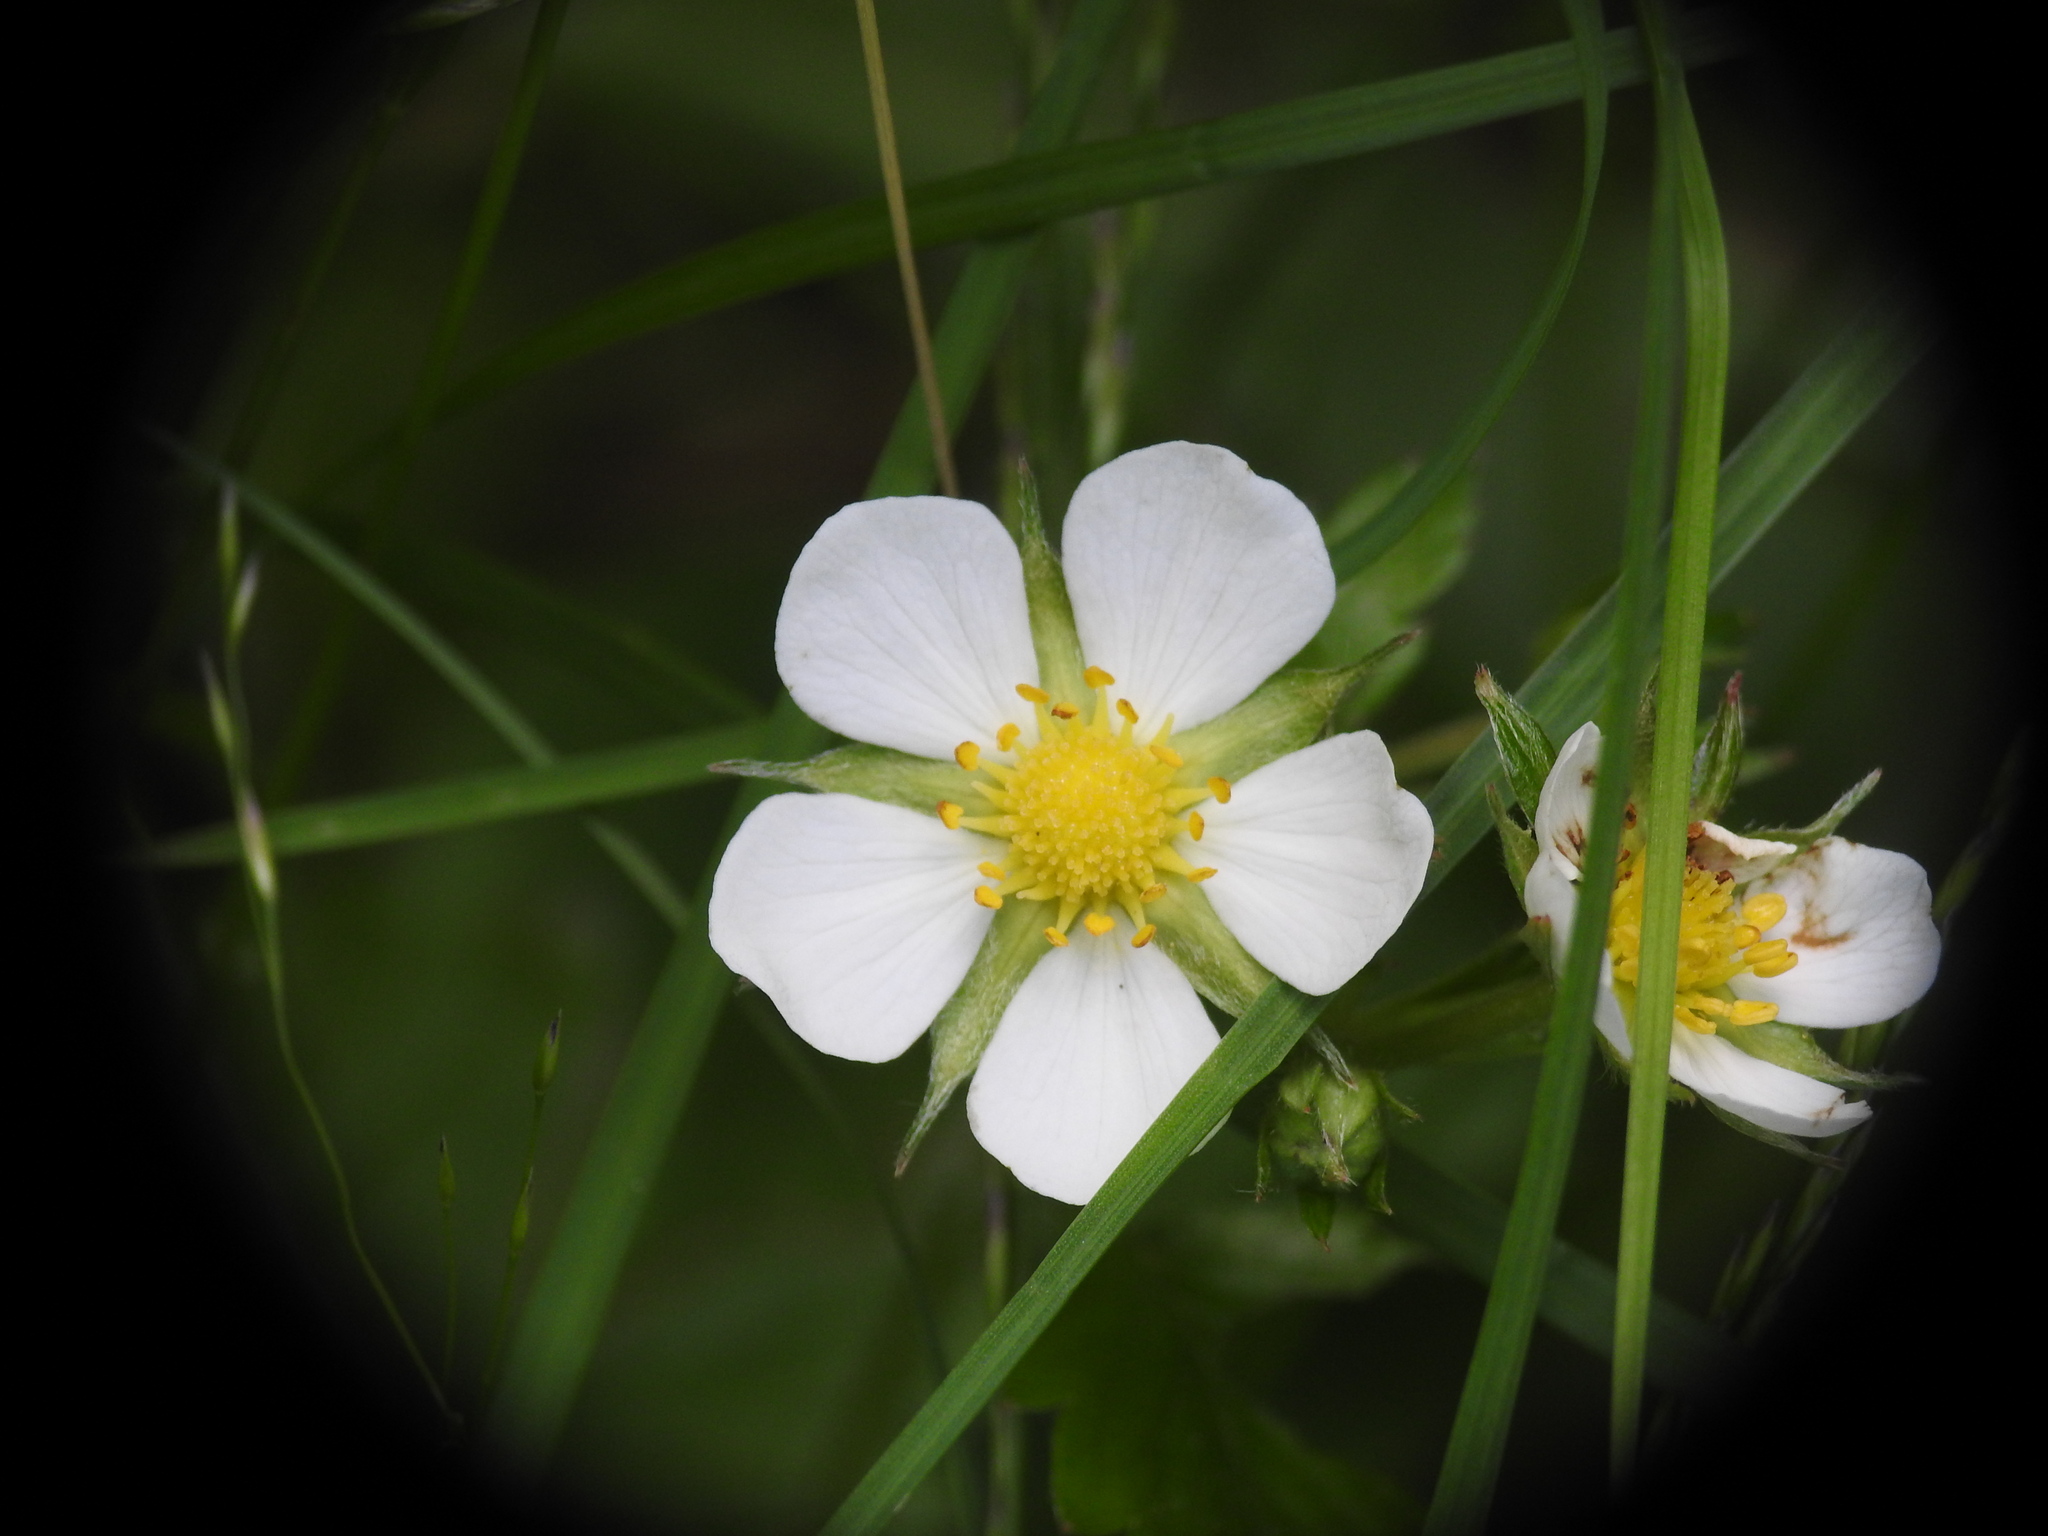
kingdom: Plantae
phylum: Tracheophyta
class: Magnoliopsida
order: Rosales
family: Rosaceae
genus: Fragaria
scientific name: Fragaria vesca
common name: Wild strawberry
